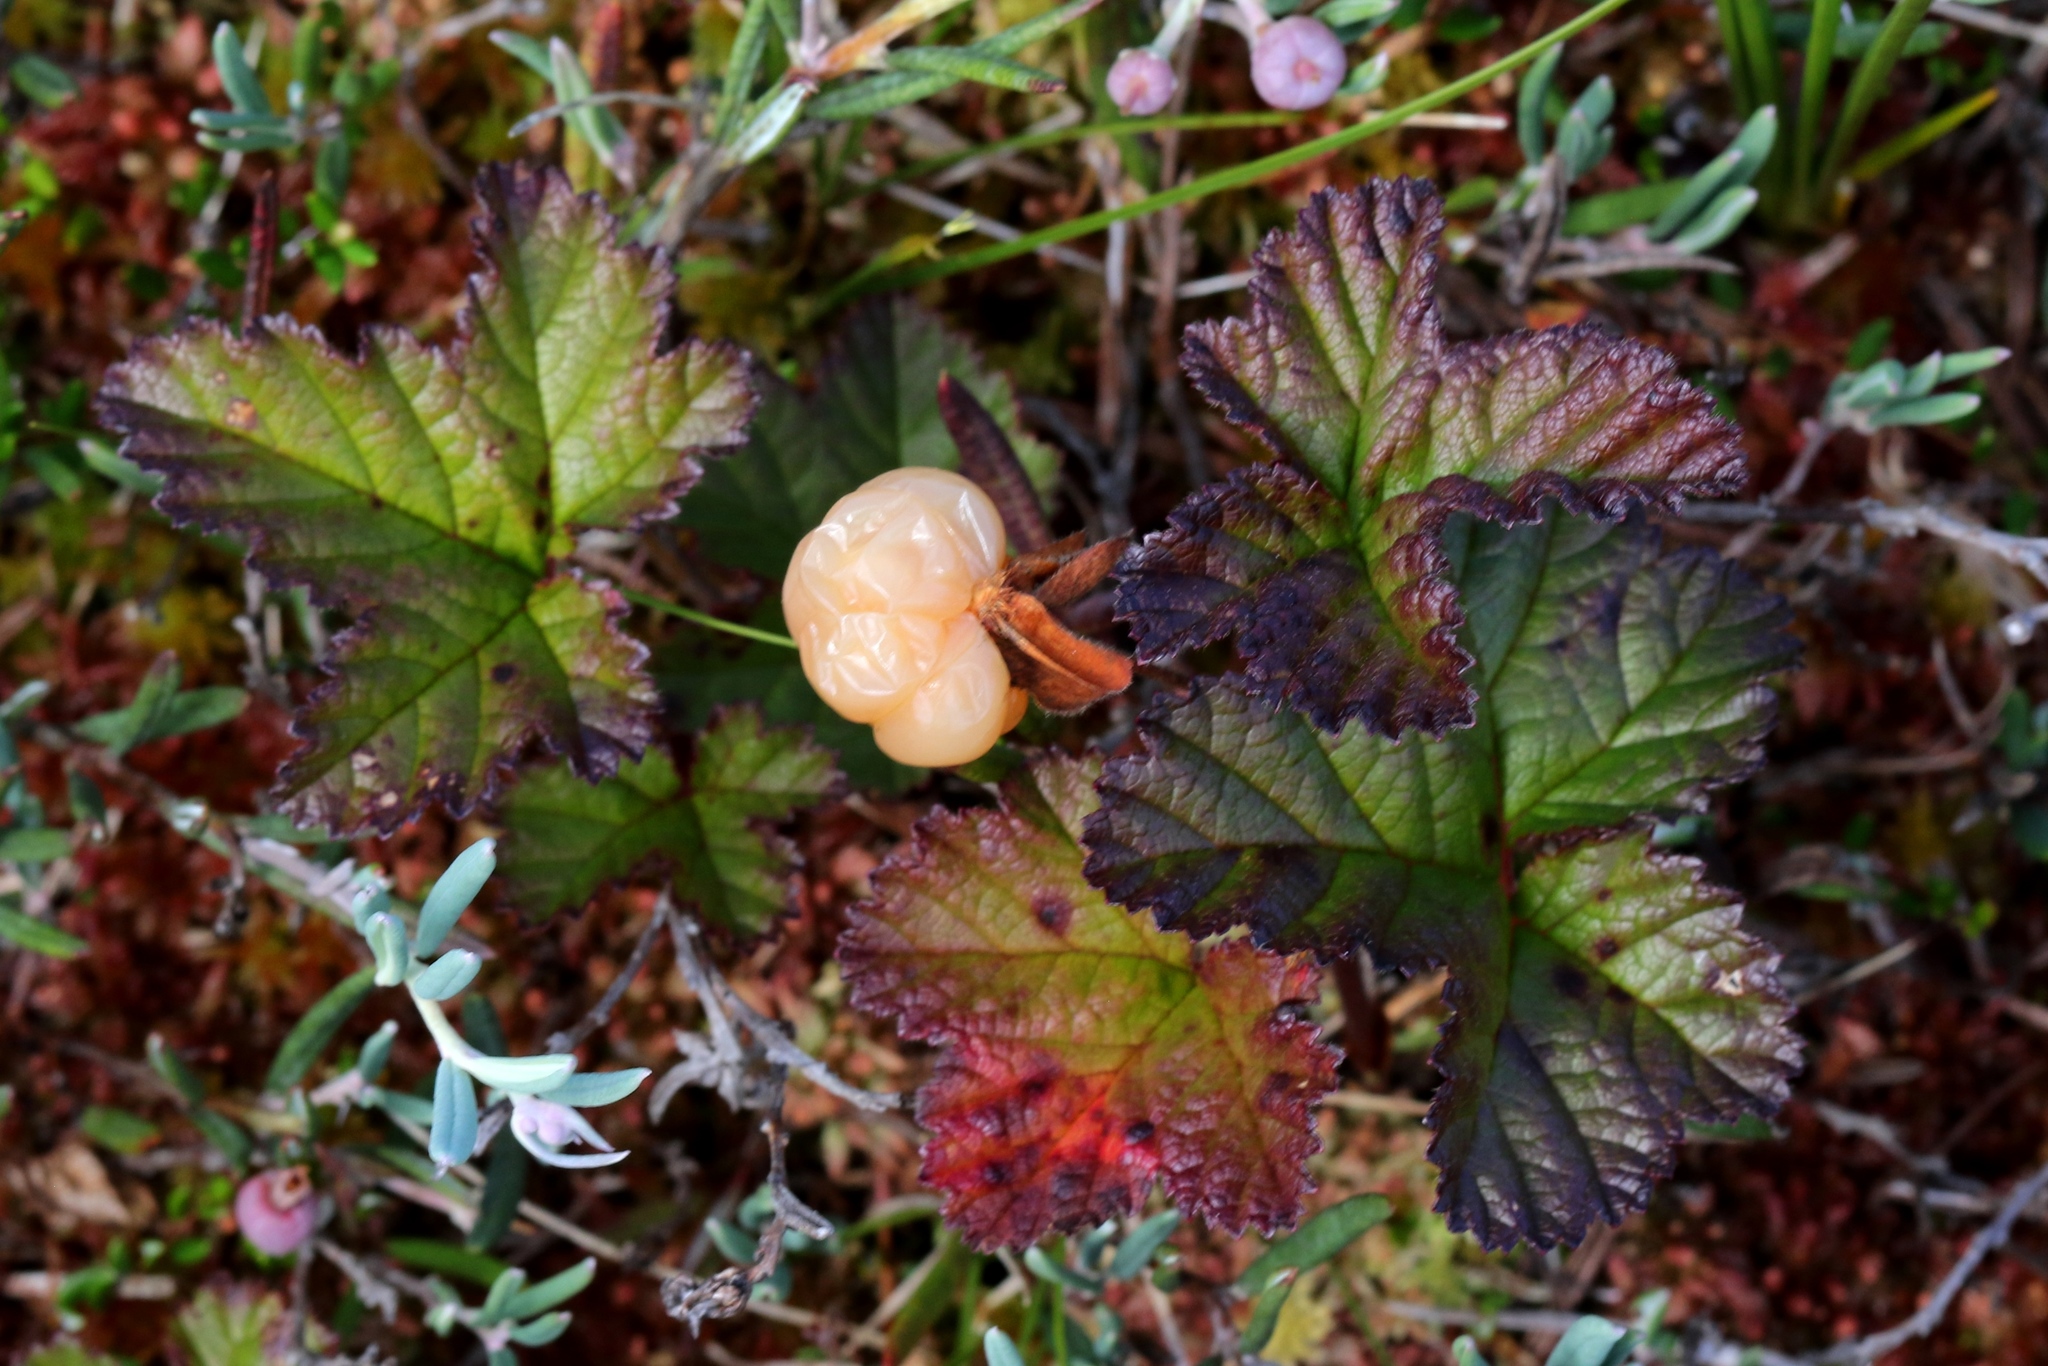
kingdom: Plantae
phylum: Tracheophyta
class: Magnoliopsida
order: Rosales
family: Rosaceae
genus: Rubus
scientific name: Rubus chamaemorus
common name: Cloudberry
